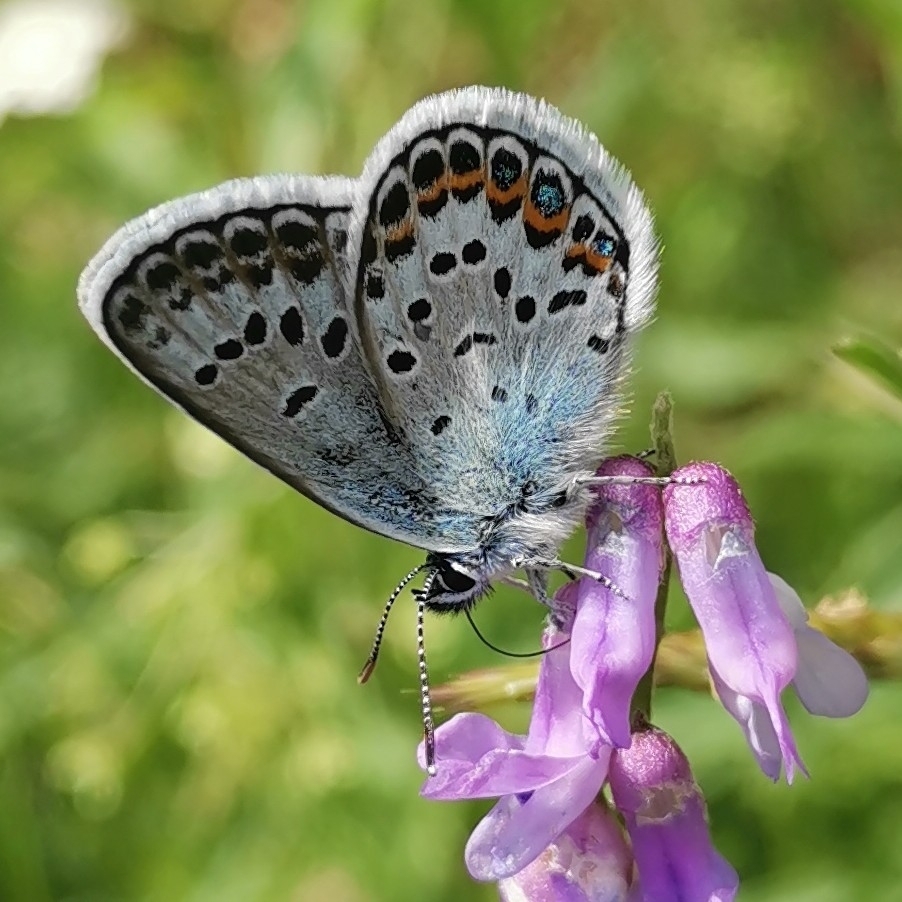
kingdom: Animalia
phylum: Arthropoda
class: Insecta
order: Lepidoptera
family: Lycaenidae
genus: Plebejus
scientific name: Plebejus argus
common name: Silver-studded blue
